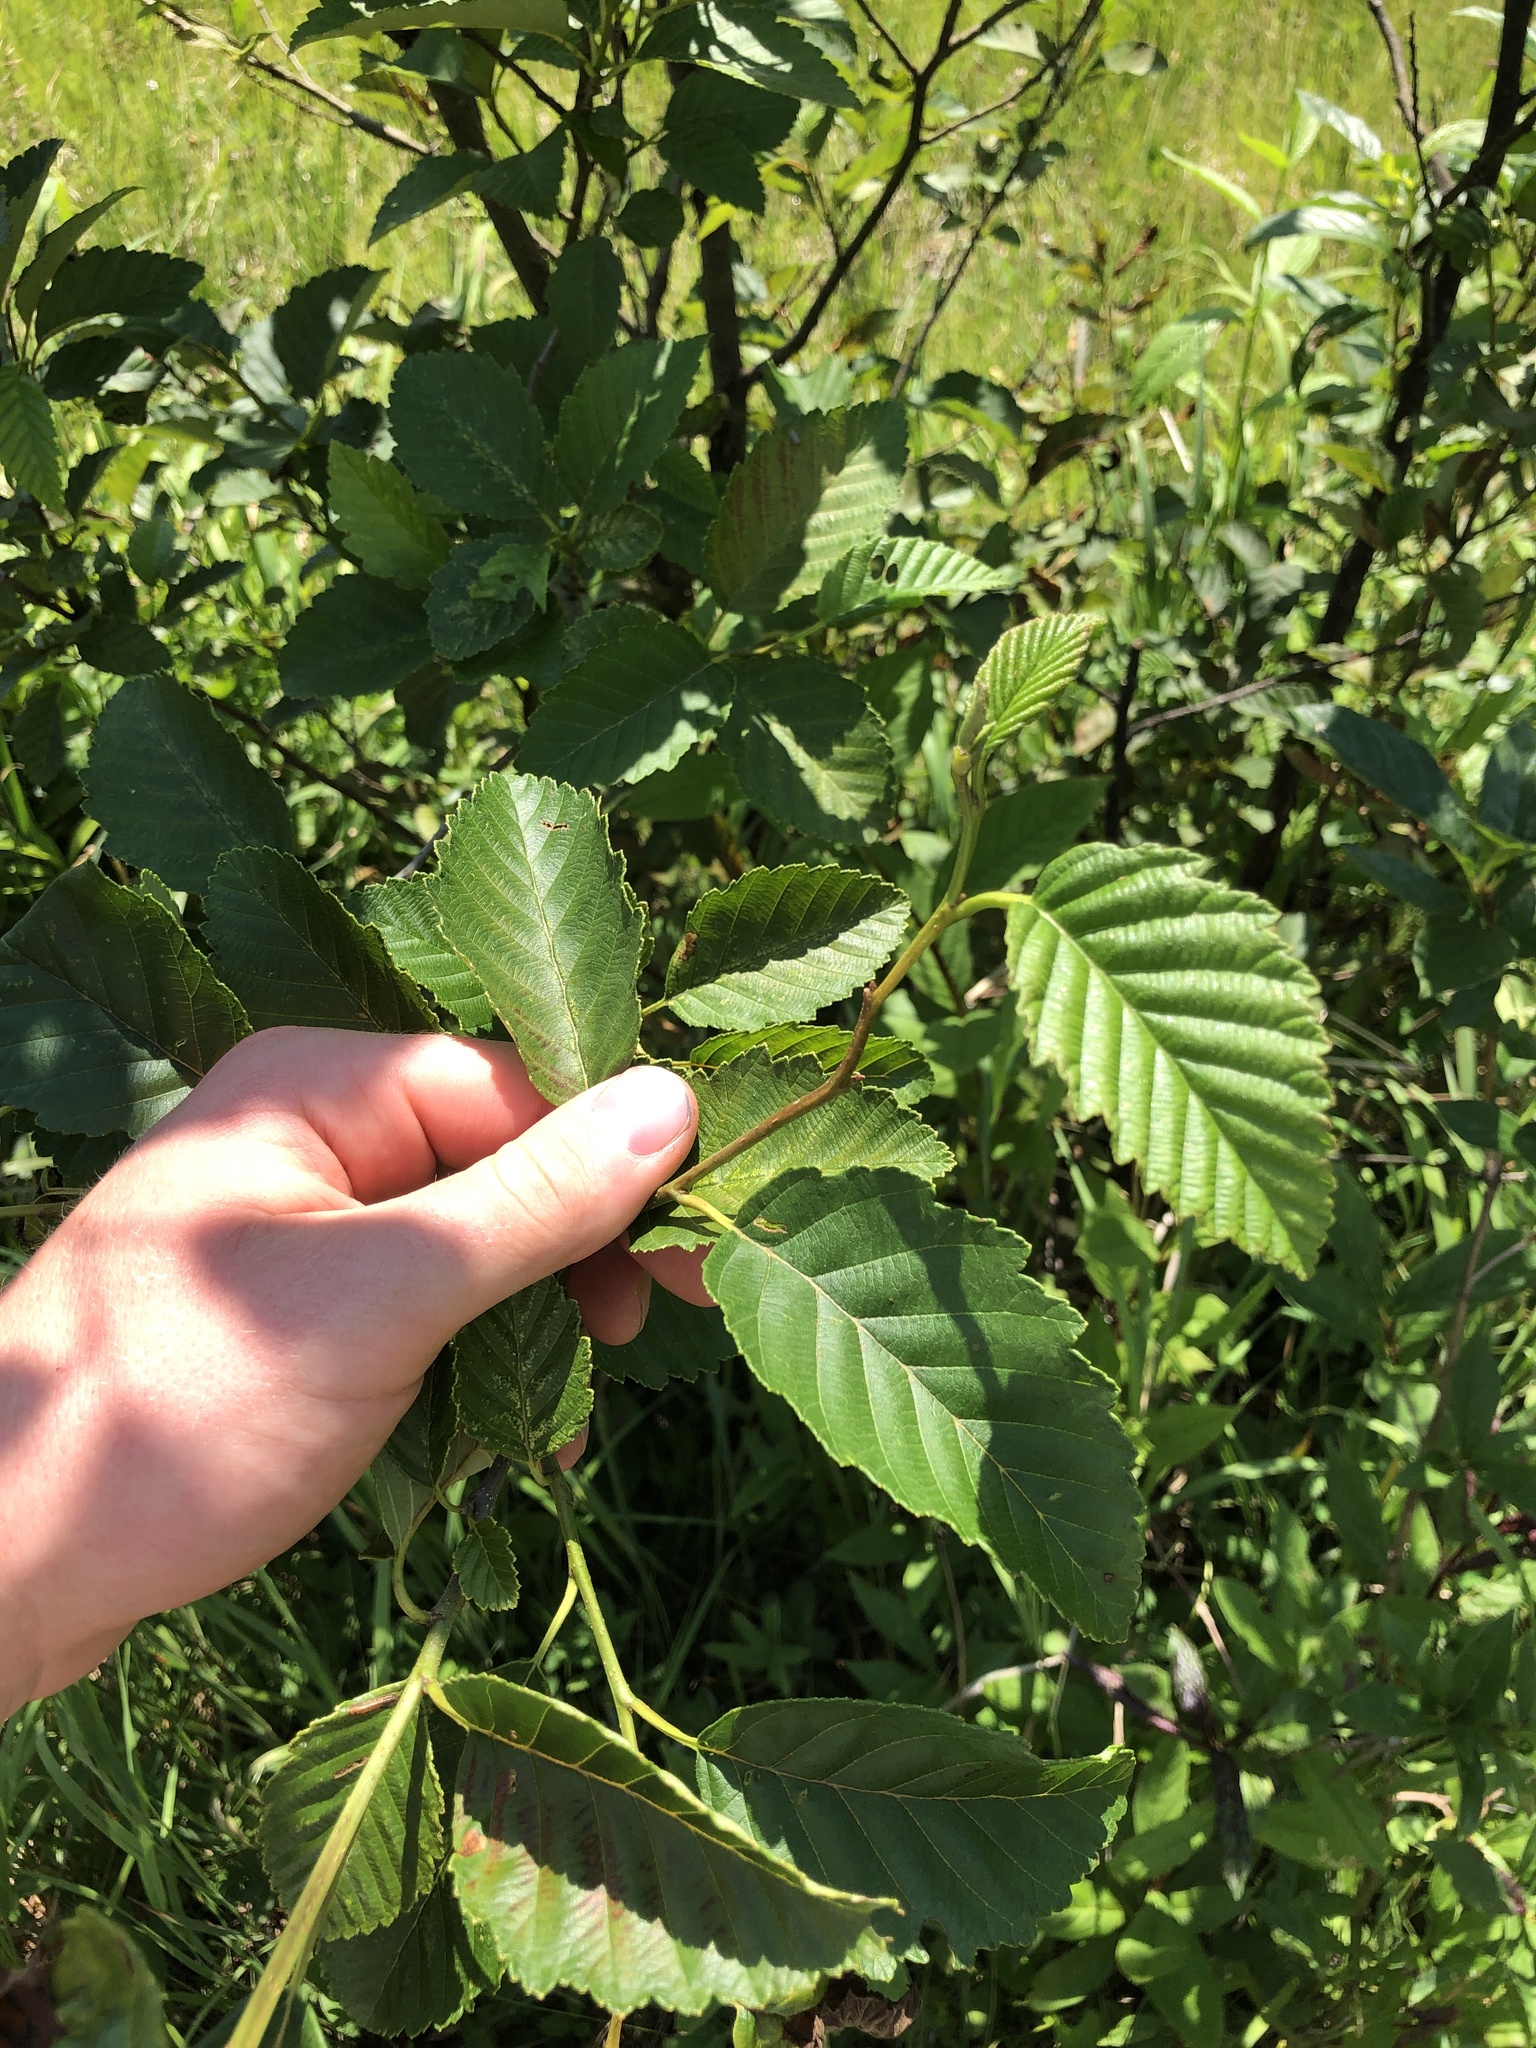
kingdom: Plantae
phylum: Tracheophyta
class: Magnoliopsida
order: Fagales
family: Betulaceae
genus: Alnus
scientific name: Alnus rubra
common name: Red alder
